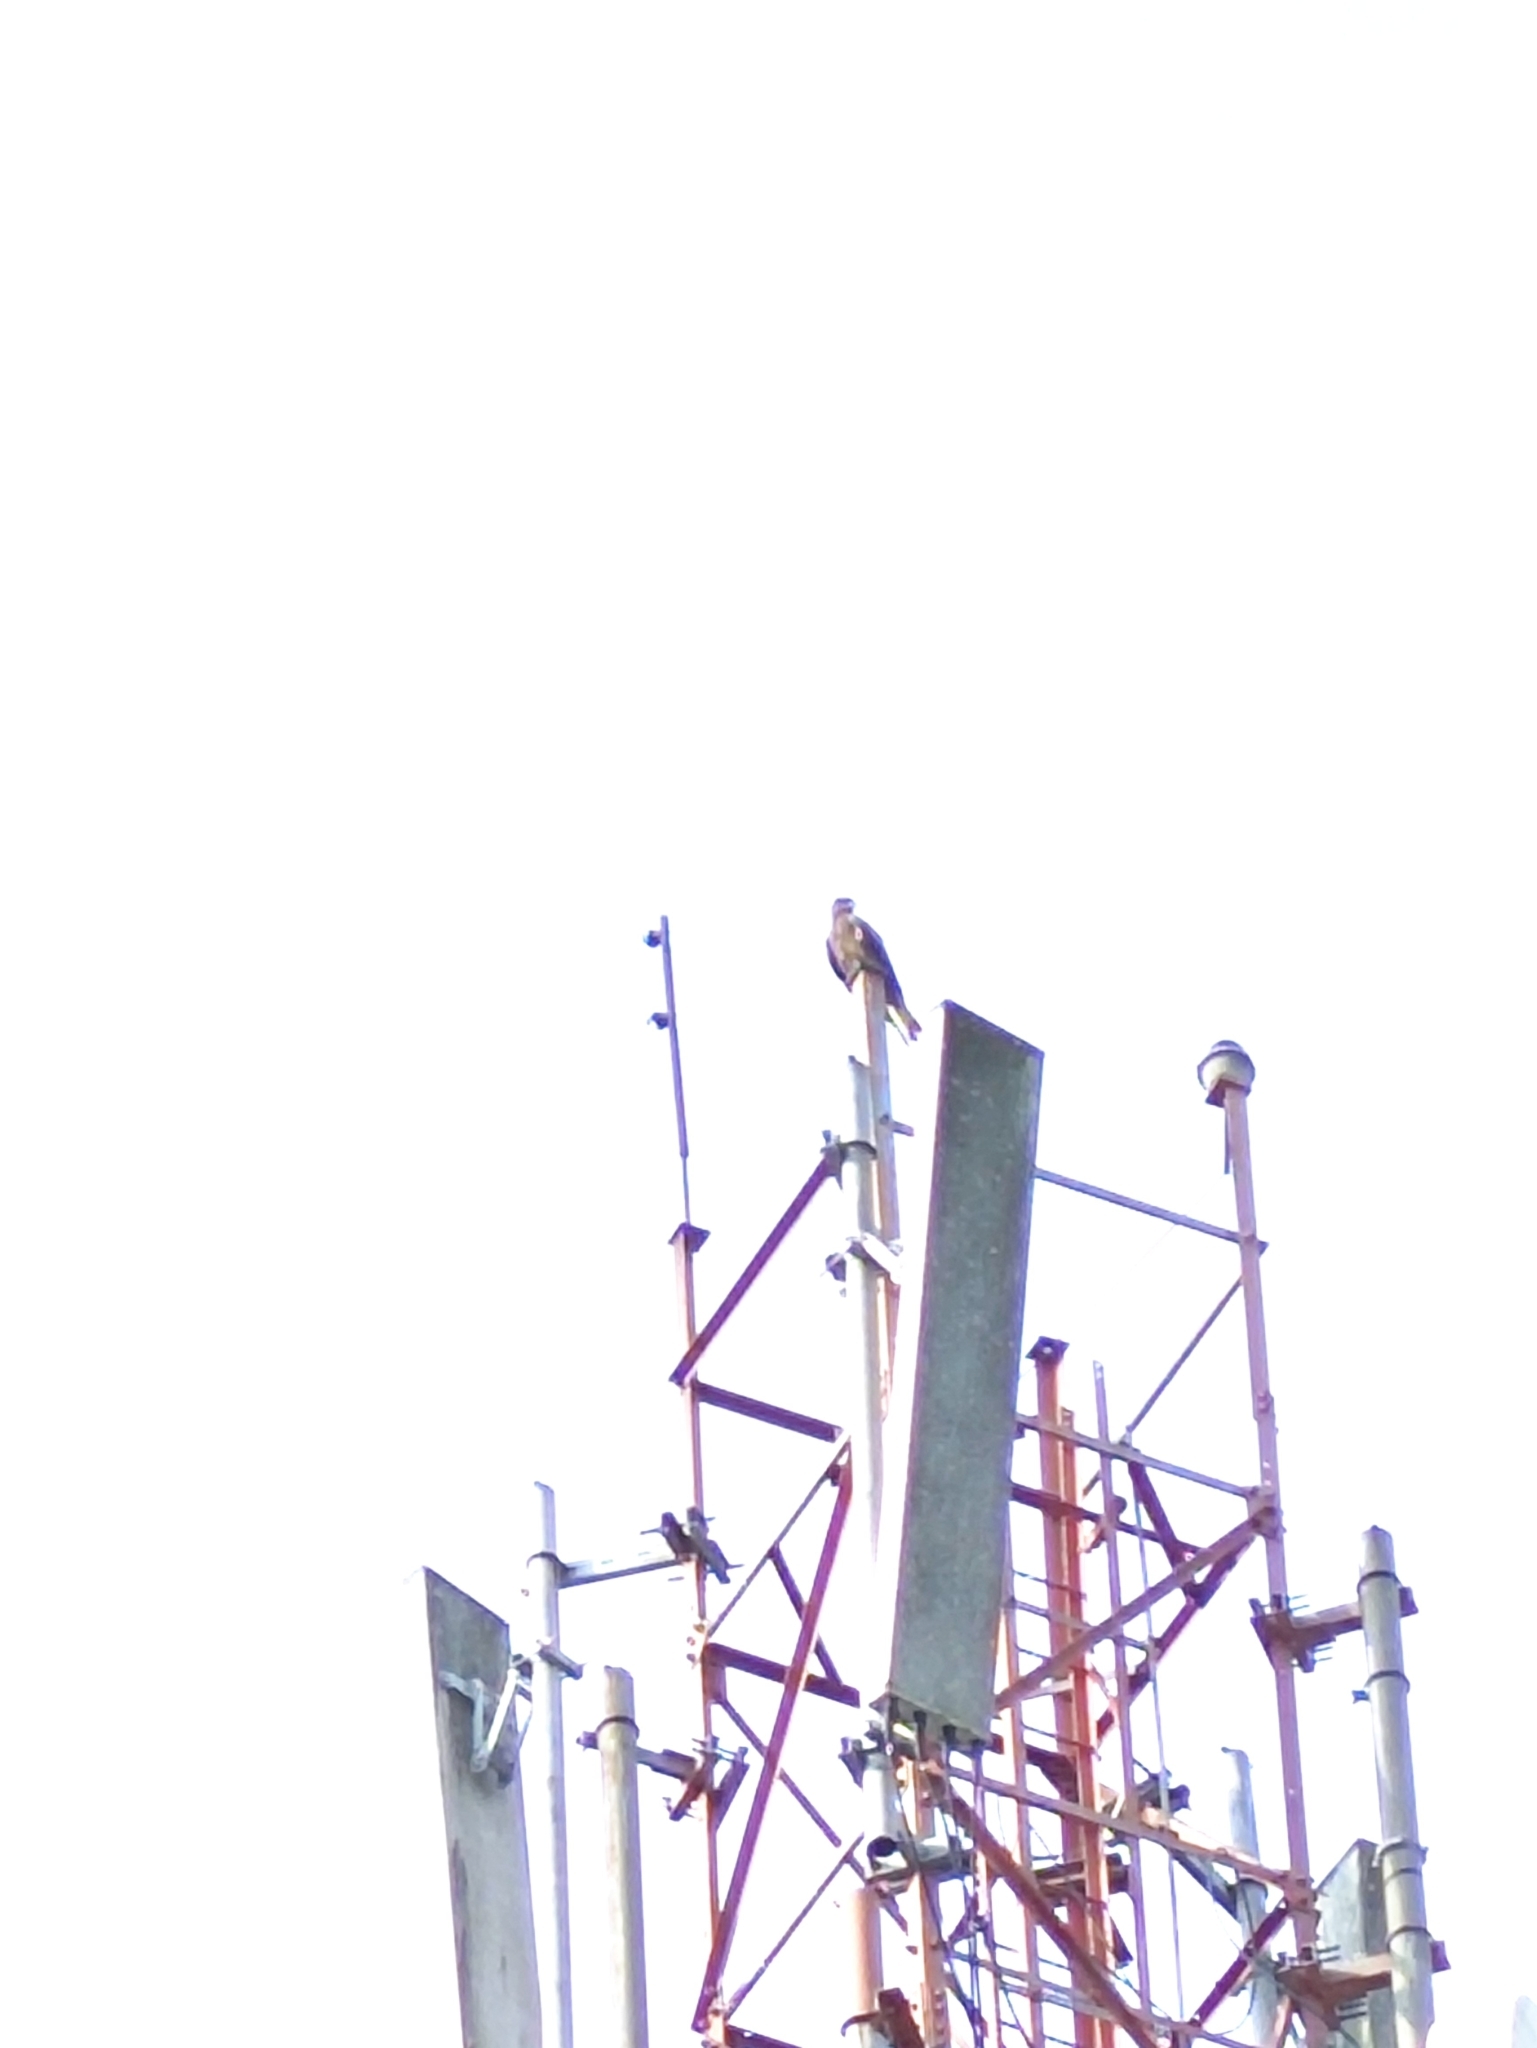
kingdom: Animalia
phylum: Chordata
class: Aves
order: Accipitriformes
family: Accipitridae
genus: Milvus
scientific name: Milvus migrans
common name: Black kite
